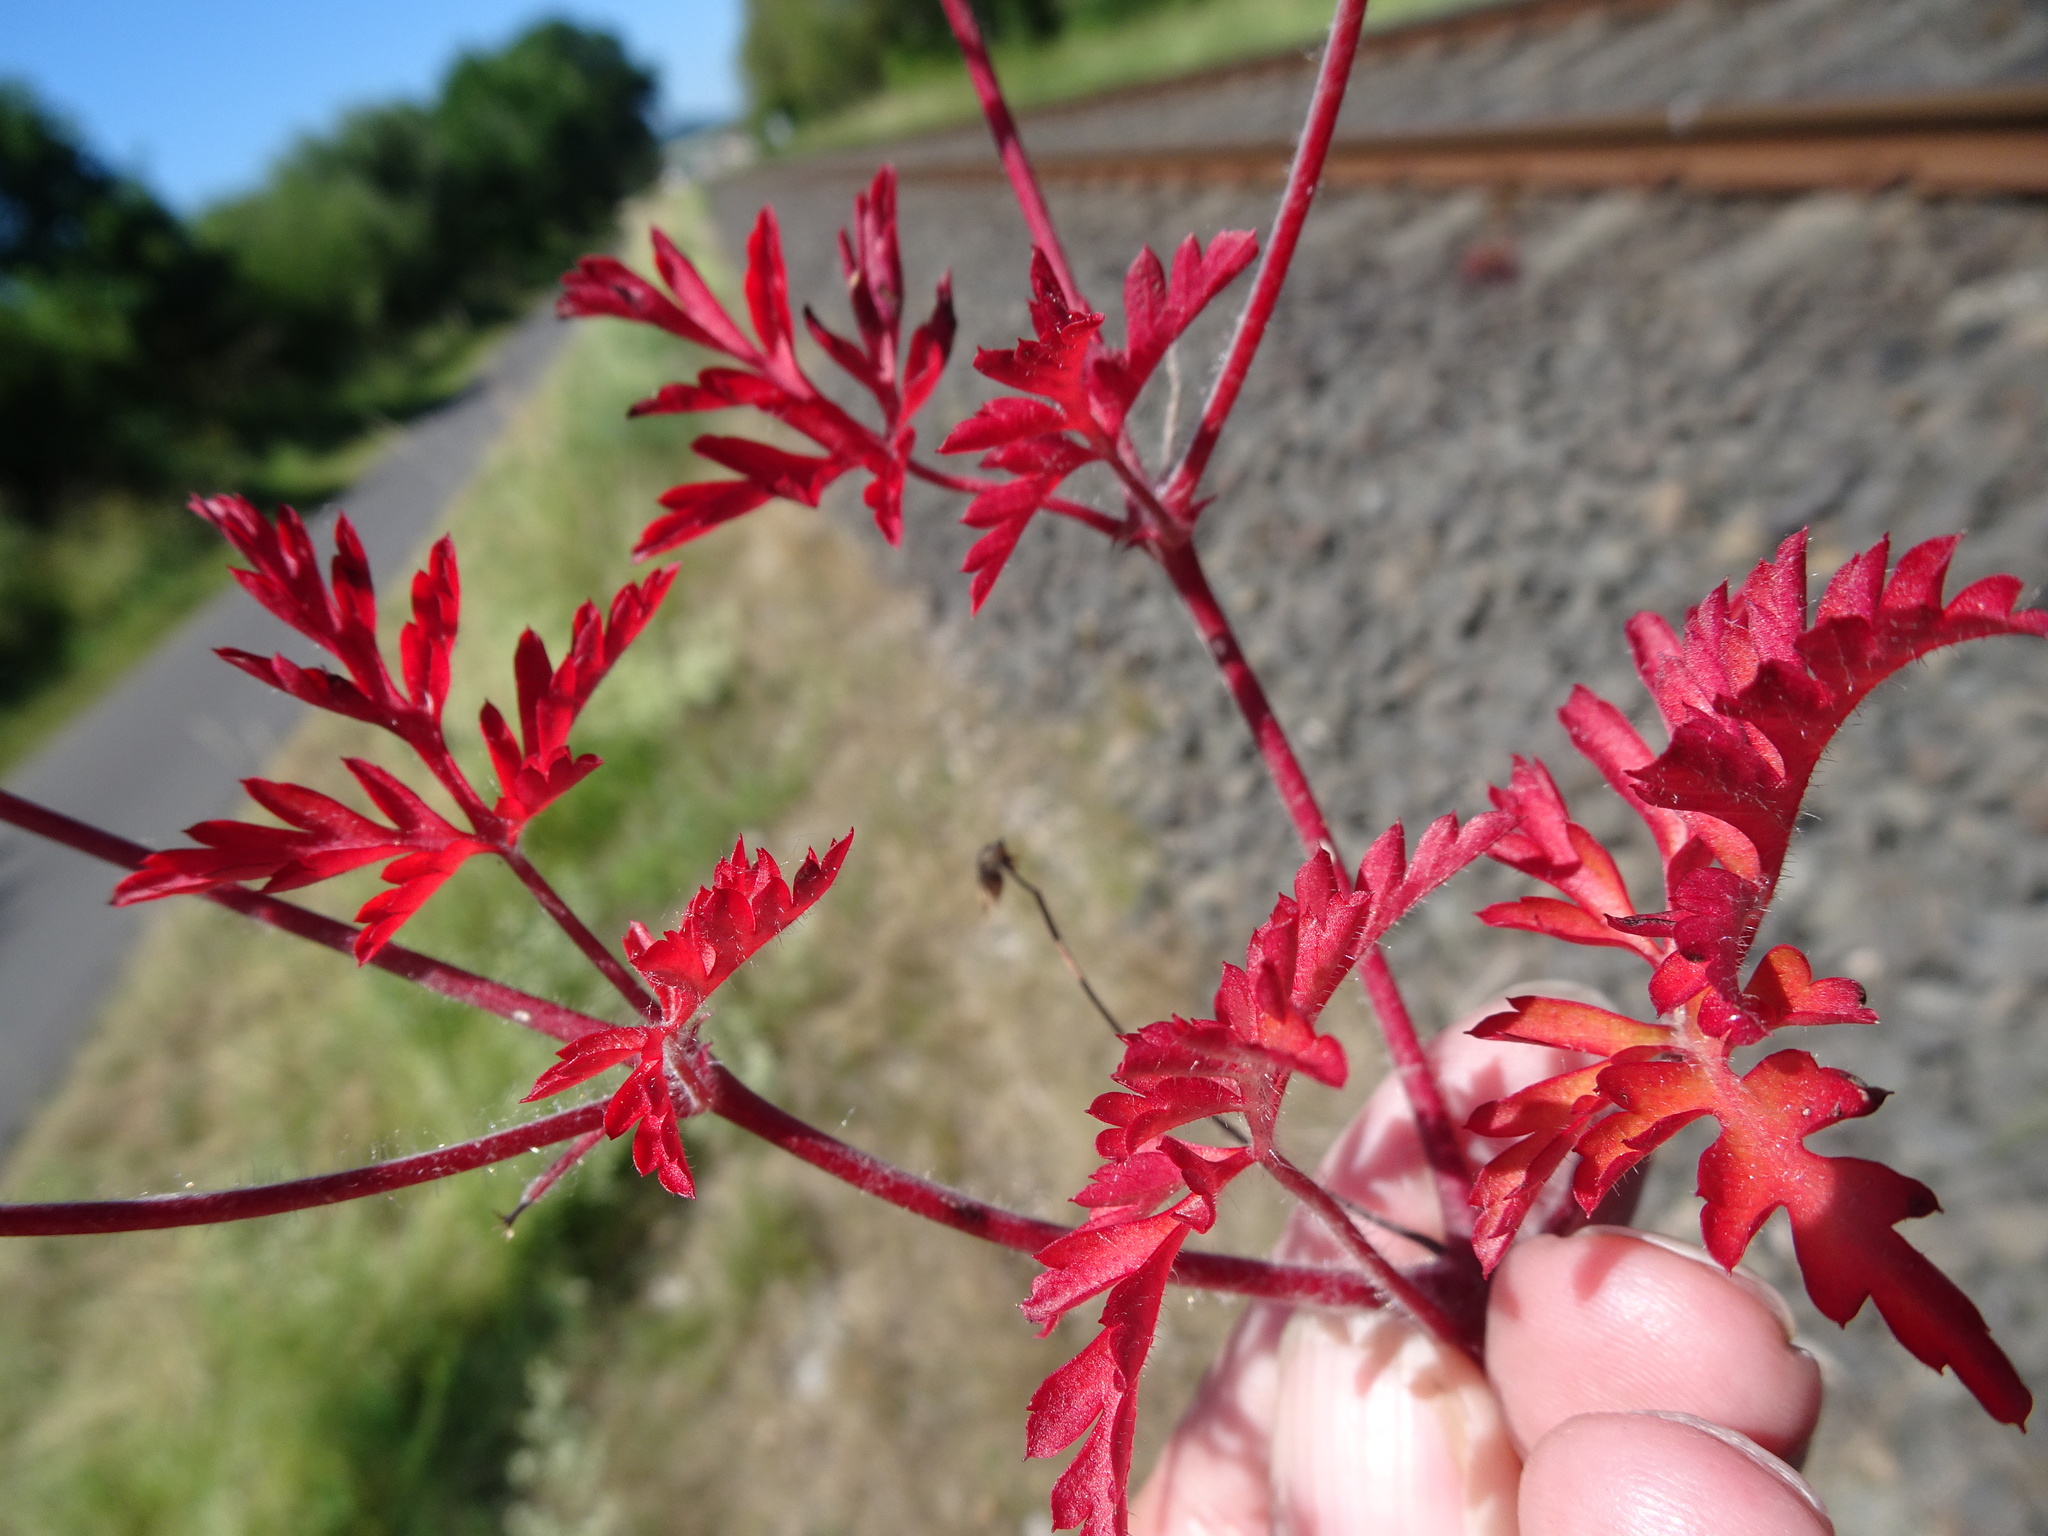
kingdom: Plantae
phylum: Tracheophyta
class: Magnoliopsida
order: Geraniales
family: Geraniaceae
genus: Geranium
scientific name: Geranium robertianum
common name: Herb-robert
